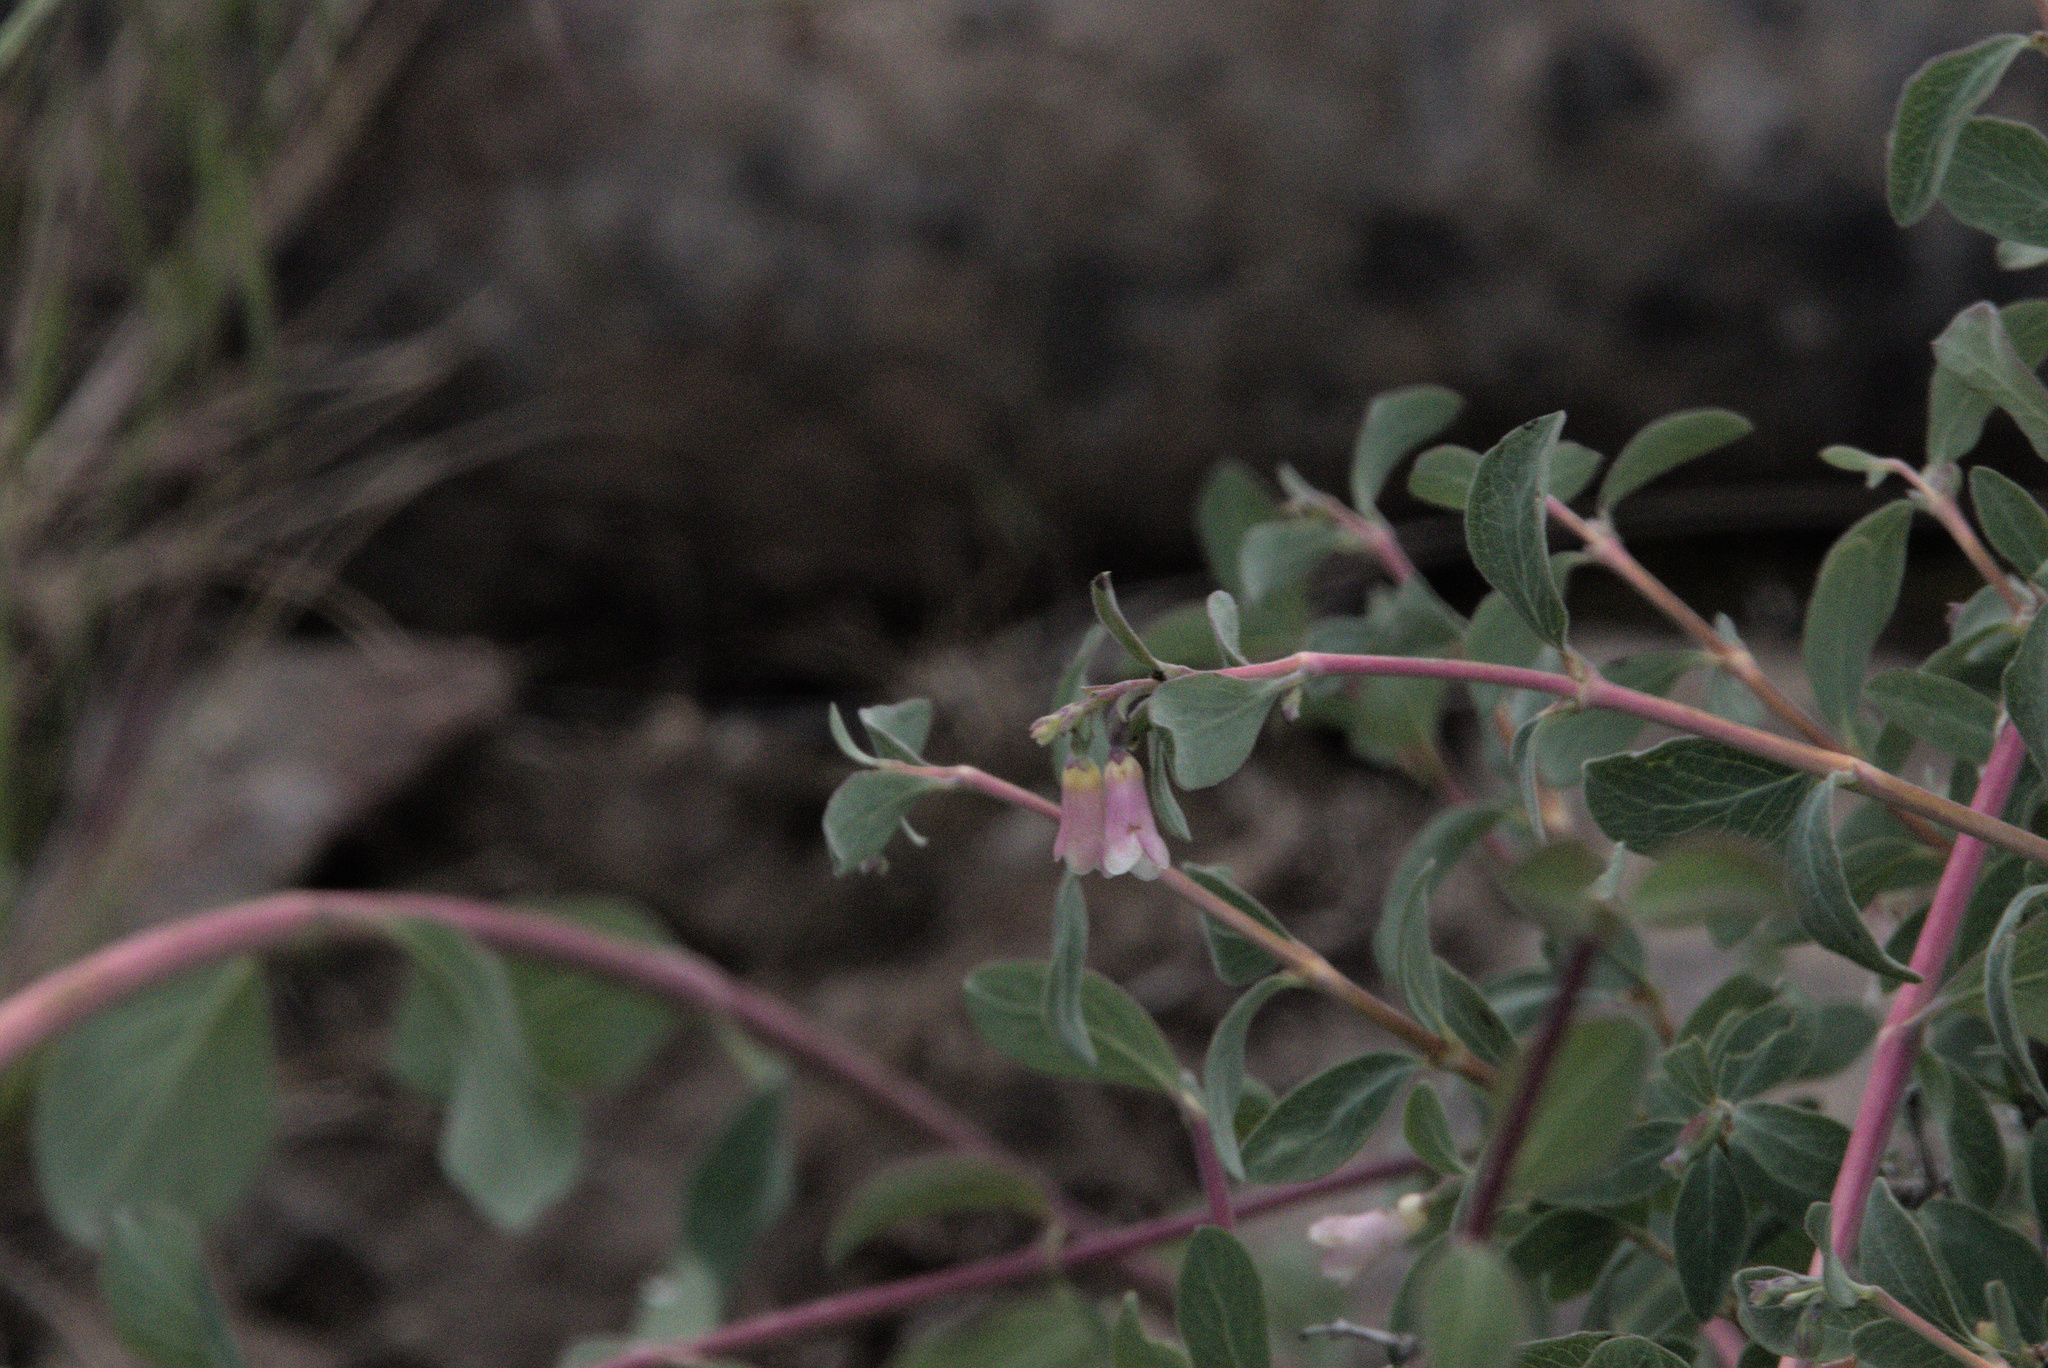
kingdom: Plantae
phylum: Tracheophyta
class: Magnoliopsida
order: Dipsacales
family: Caprifoliaceae
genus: Symphoricarpos
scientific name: Symphoricarpos rotundifolius
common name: Round-leaved snowberry
